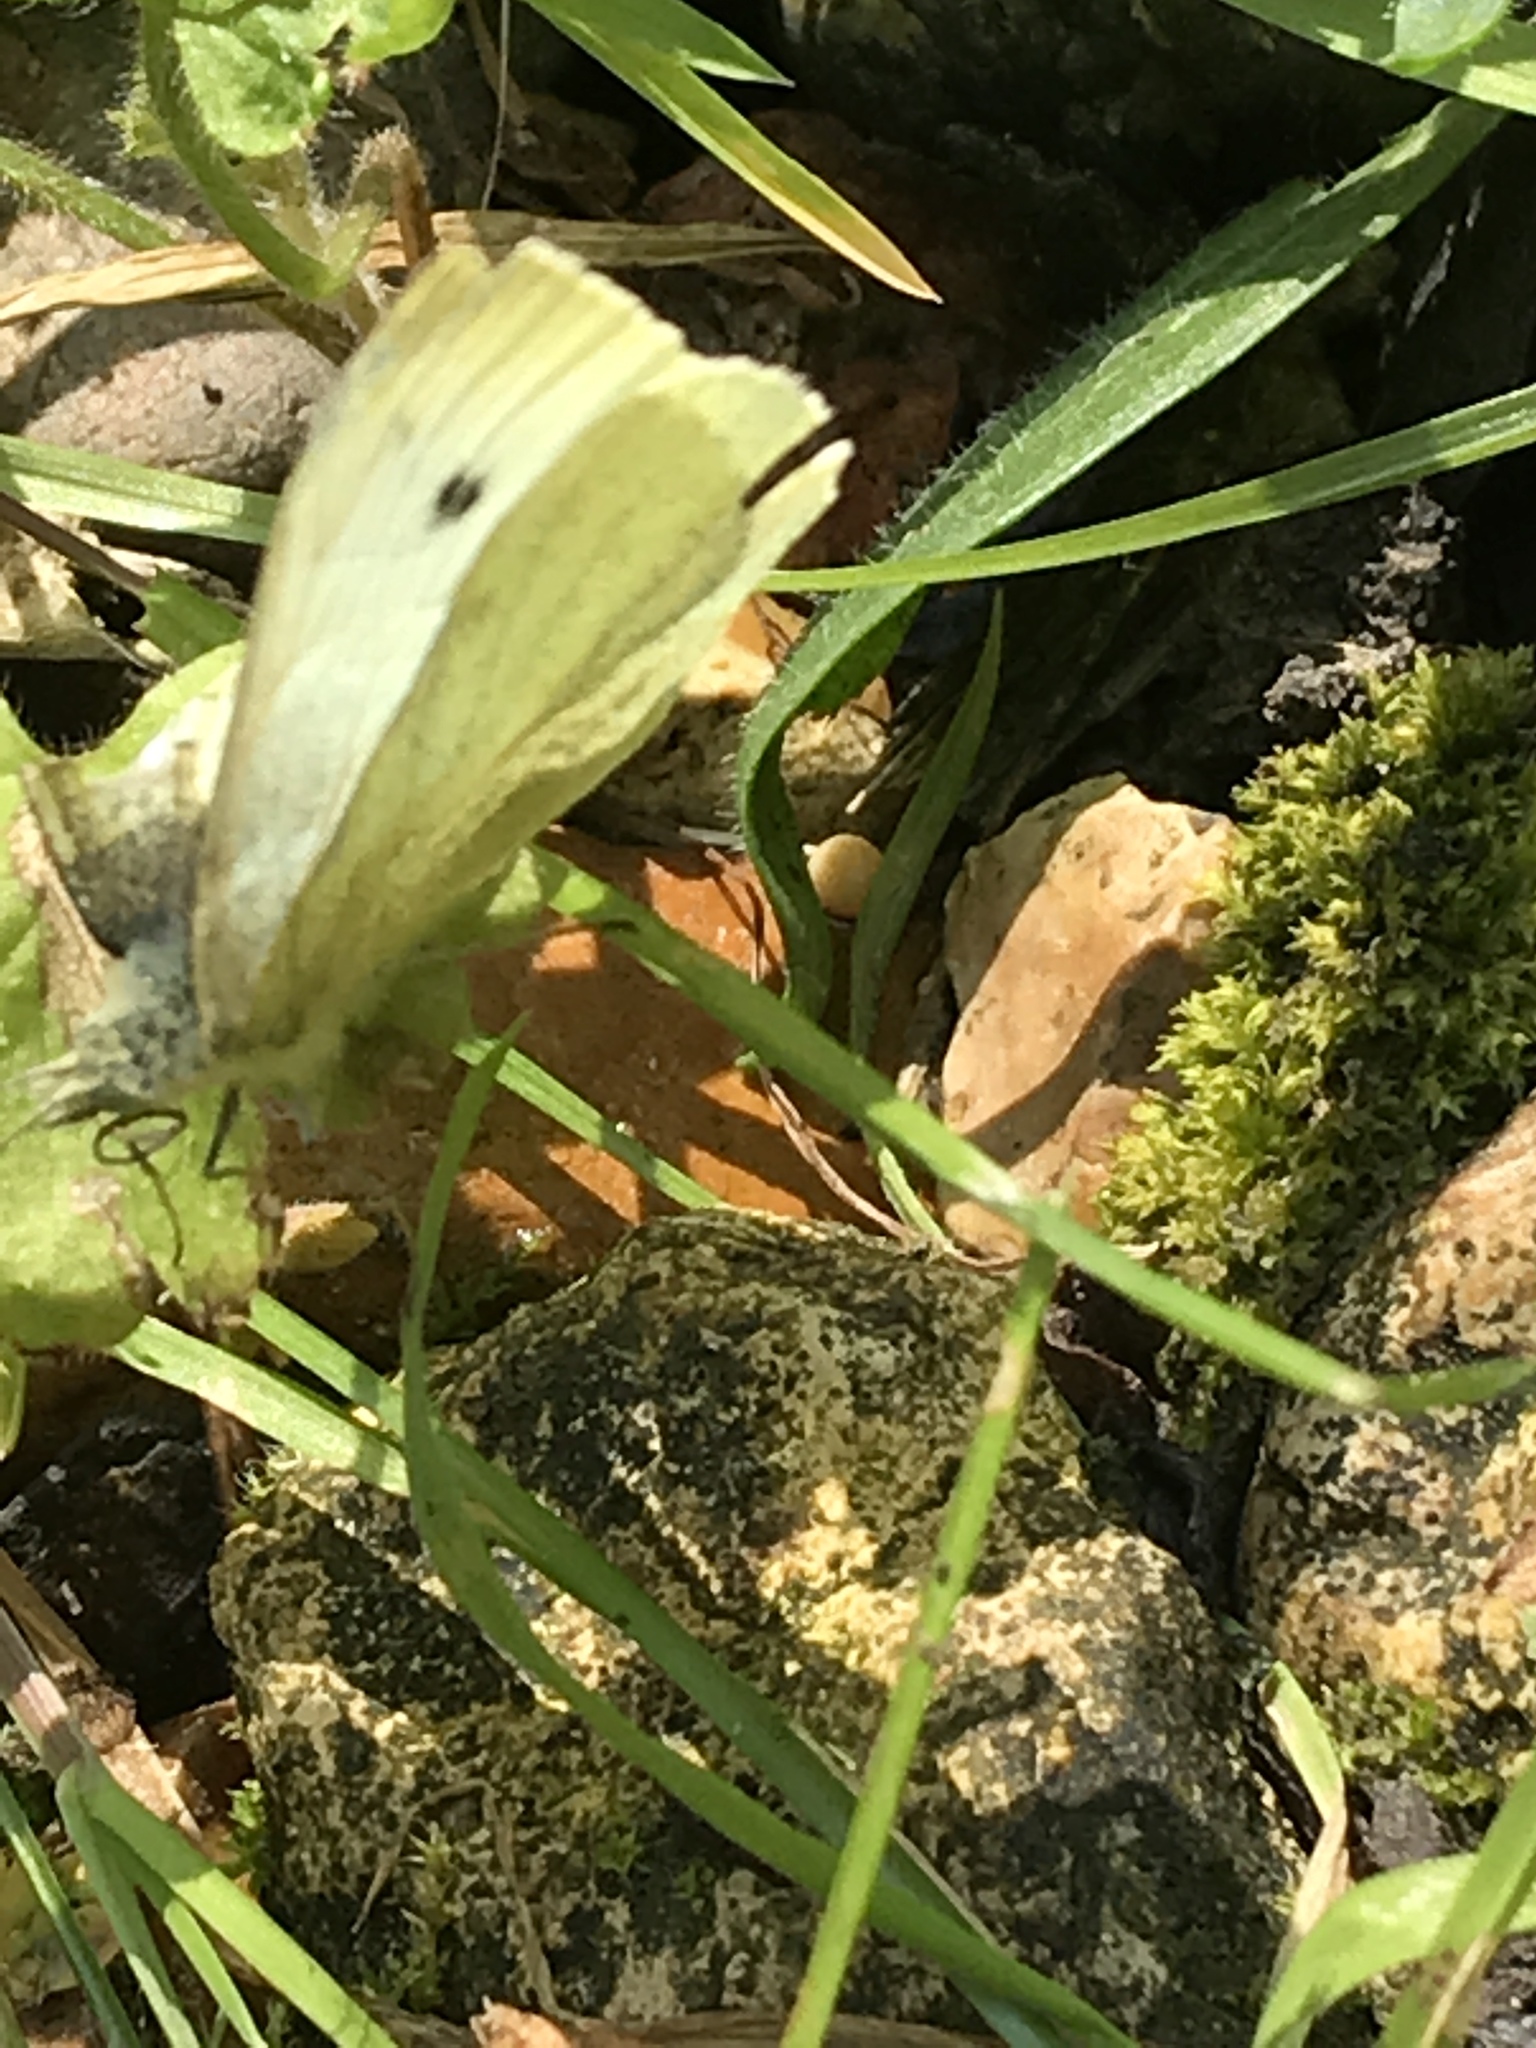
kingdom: Animalia
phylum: Arthropoda
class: Insecta
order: Lepidoptera
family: Pieridae
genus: Pieris
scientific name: Pieris rapae
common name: Small white
